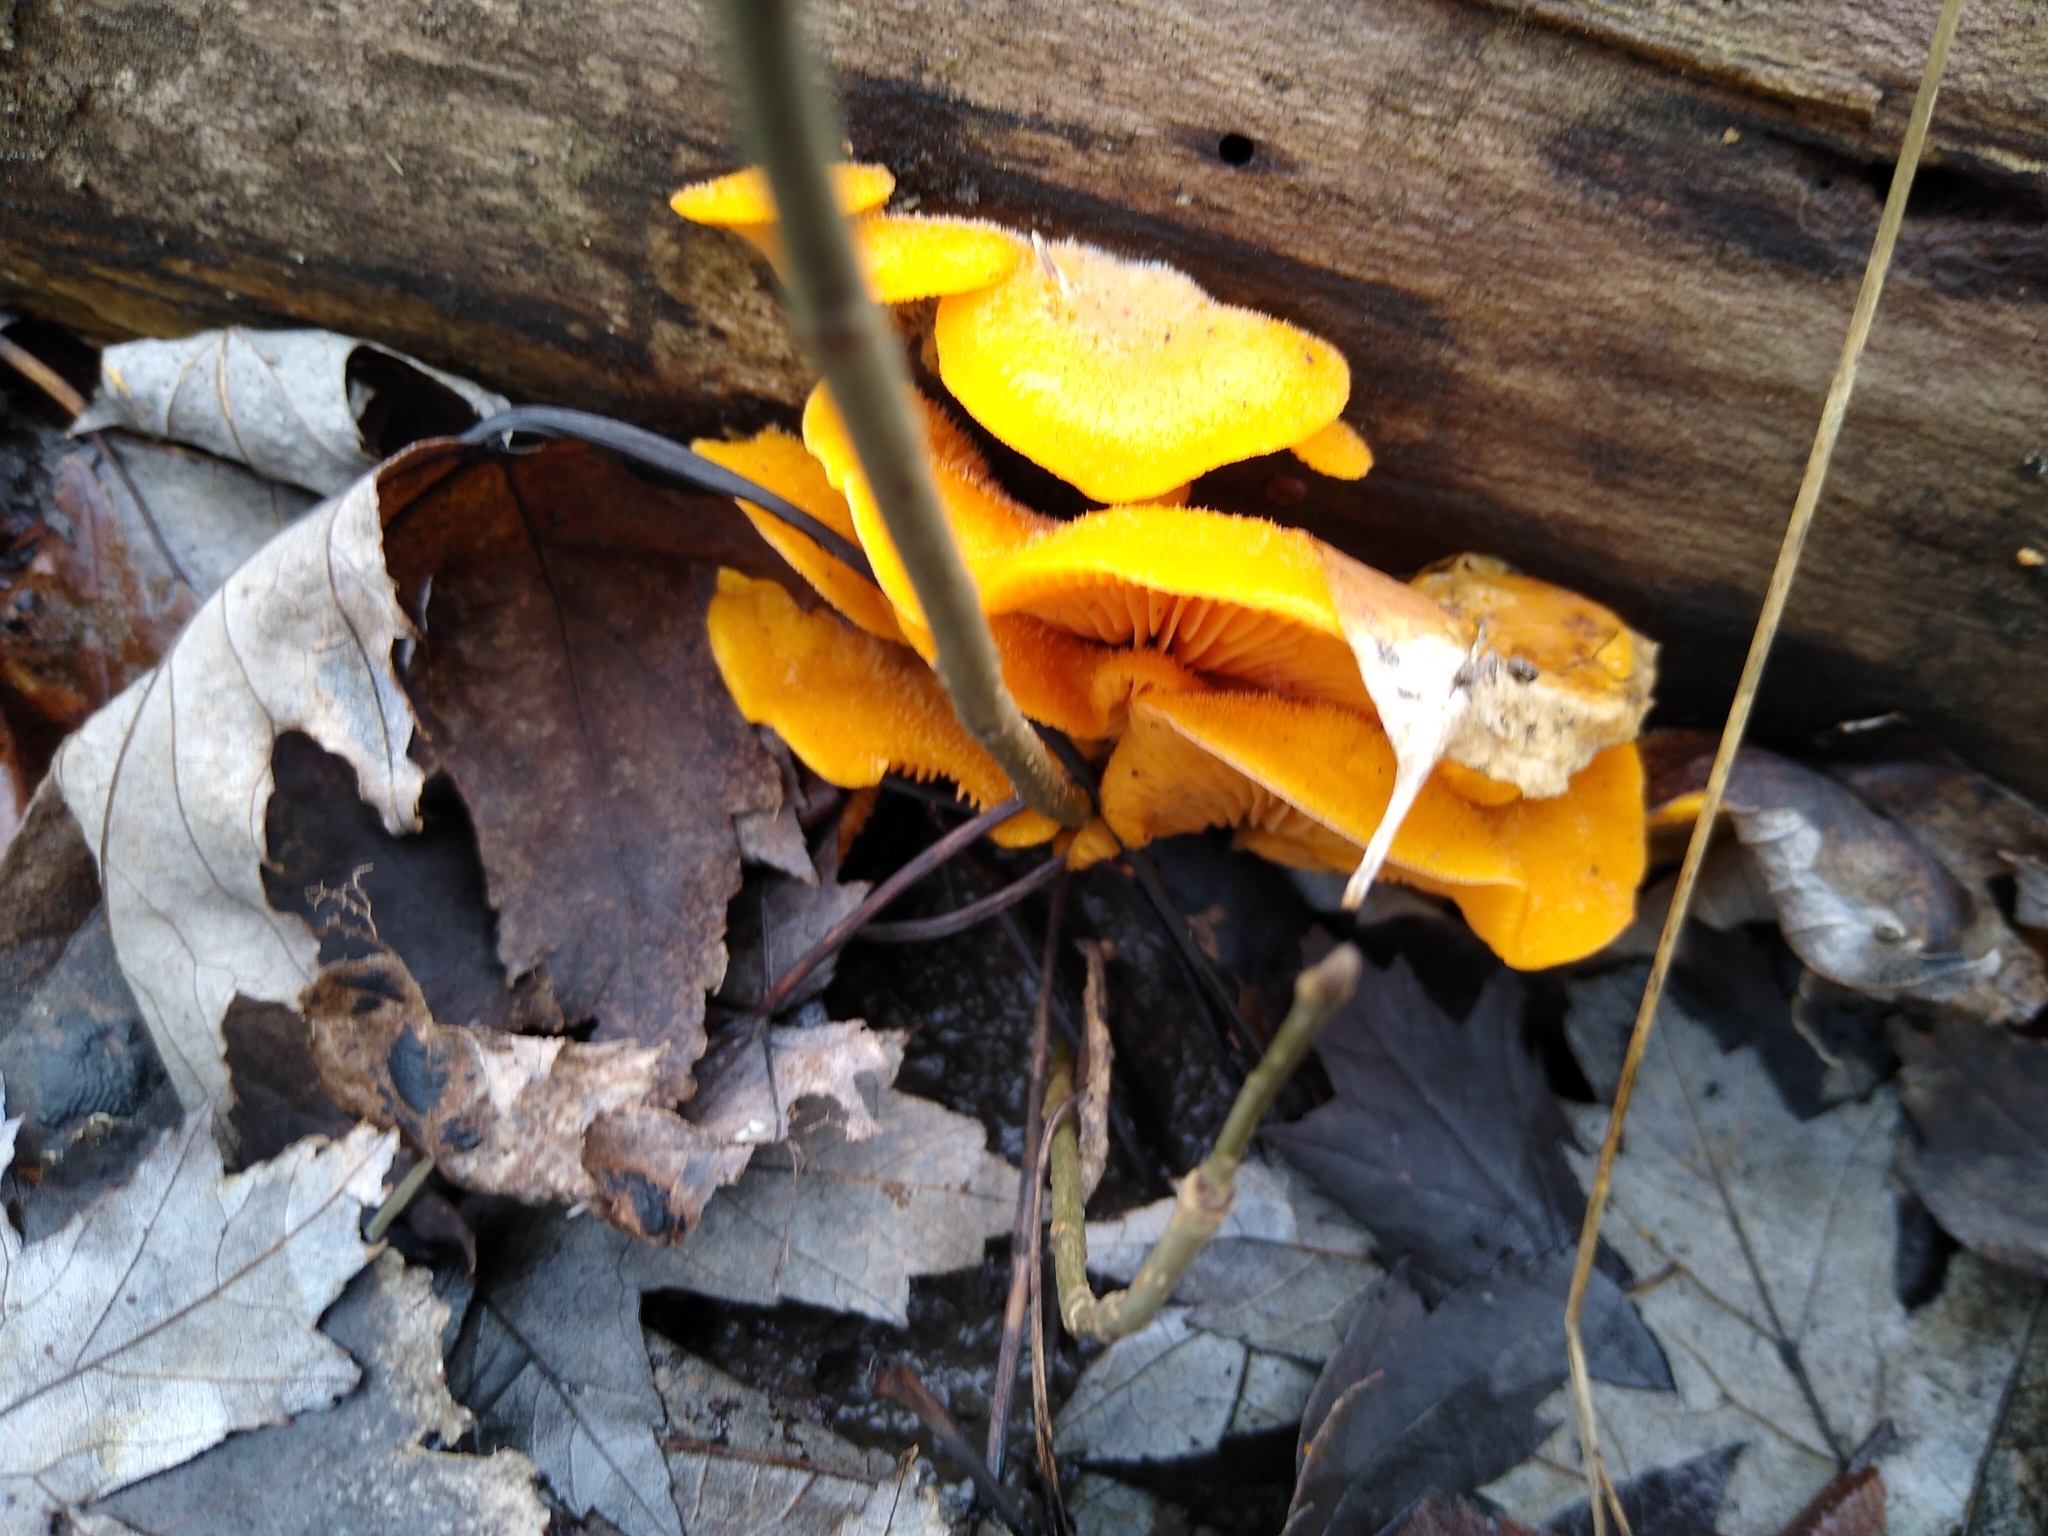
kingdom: Fungi
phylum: Basidiomycota
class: Agaricomycetes
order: Agaricales
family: Phyllotopsidaceae
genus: Phyllotopsis
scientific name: Phyllotopsis nidulans
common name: Orange mock oyster
